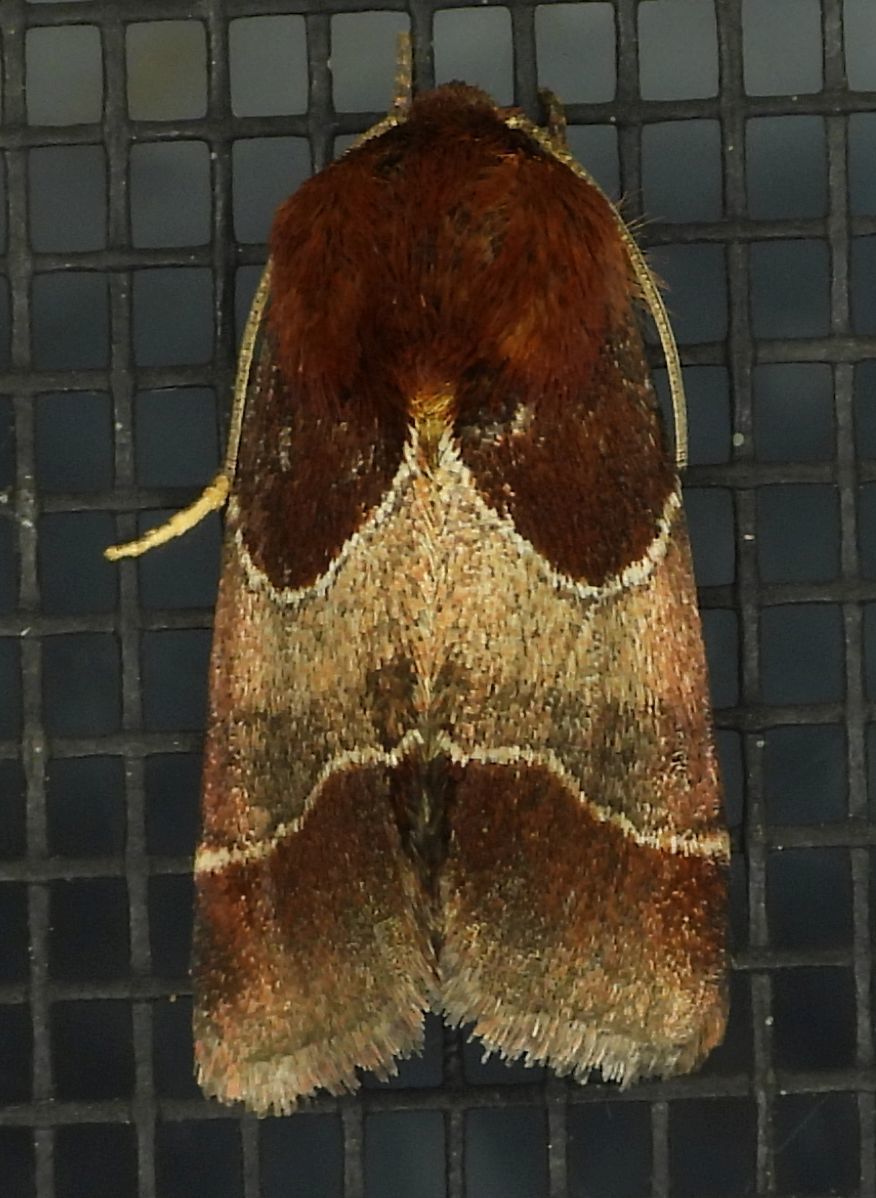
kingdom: Animalia
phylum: Arthropoda
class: Insecta
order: Lepidoptera
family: Noctuidae
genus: Schinia
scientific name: Schinia arcigera
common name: Arcigera flower moth
